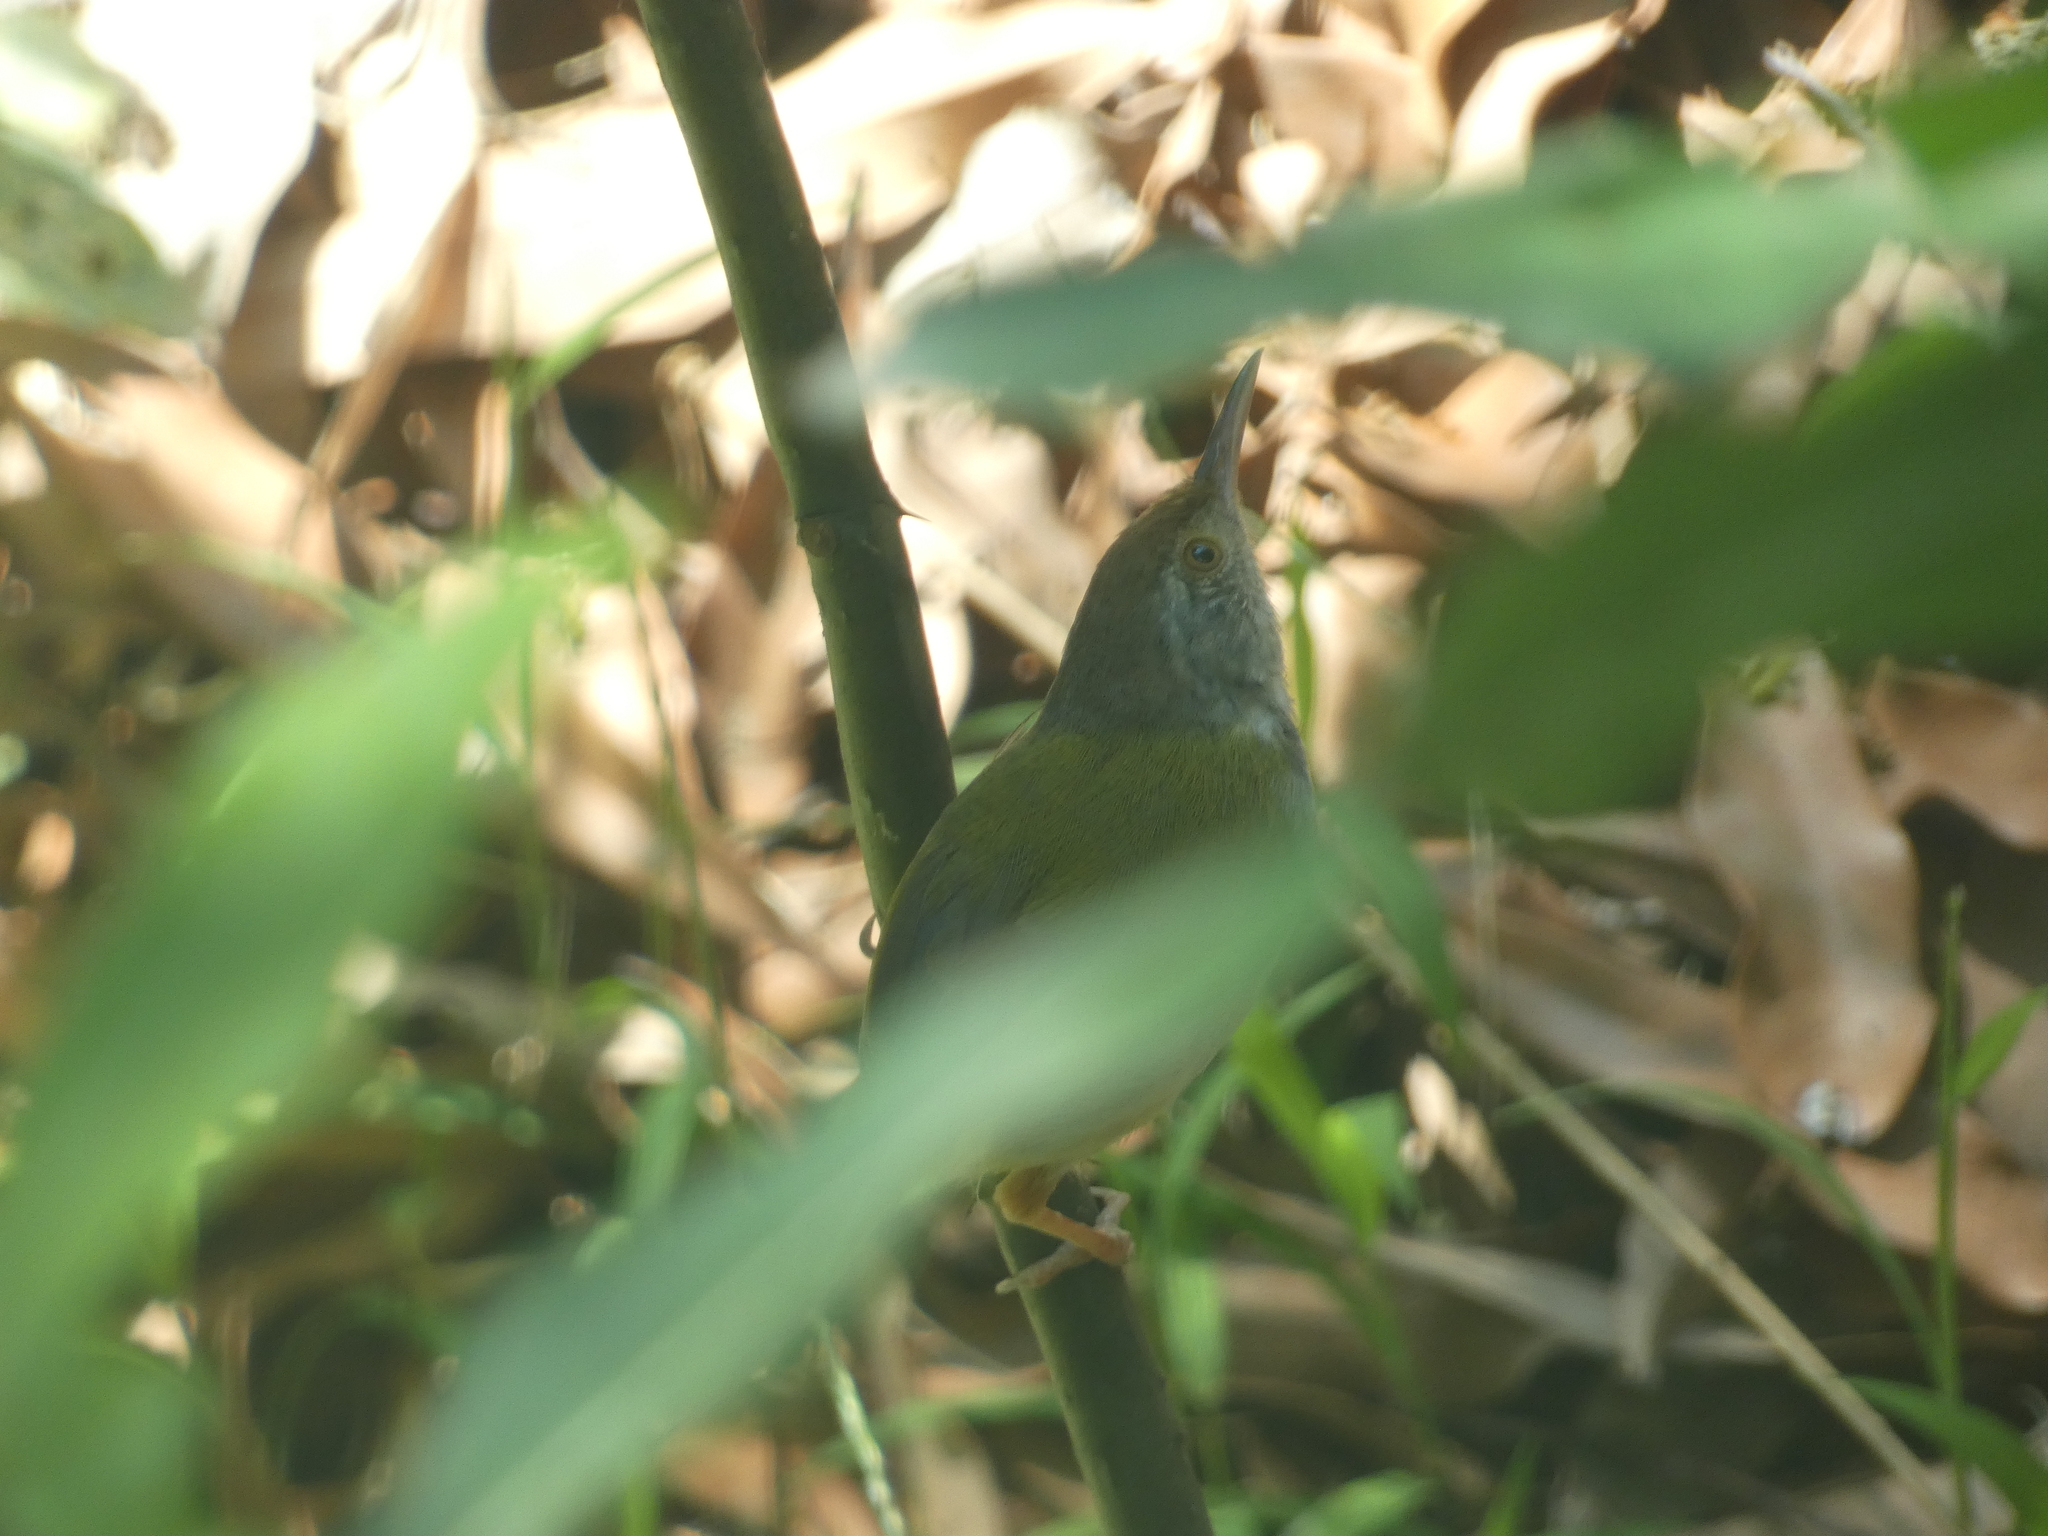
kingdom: Animalia
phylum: Chordata
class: Aves
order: Passeriformes
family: Cisticolidae
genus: Orthotomus
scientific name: Orthotomus sutorius
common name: Common tailorbird
